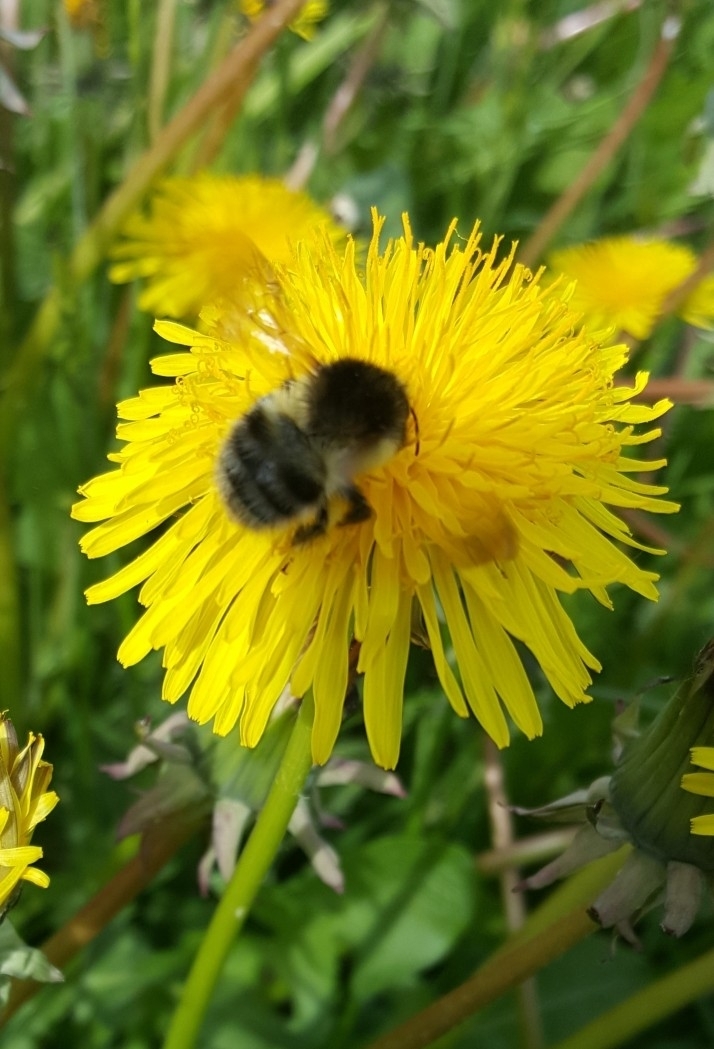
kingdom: Animalia
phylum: Arthropoda
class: Insecta
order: Hymenoptera
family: Apidae
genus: Bombus
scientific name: Bombus pascuorum
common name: Common carder bee
